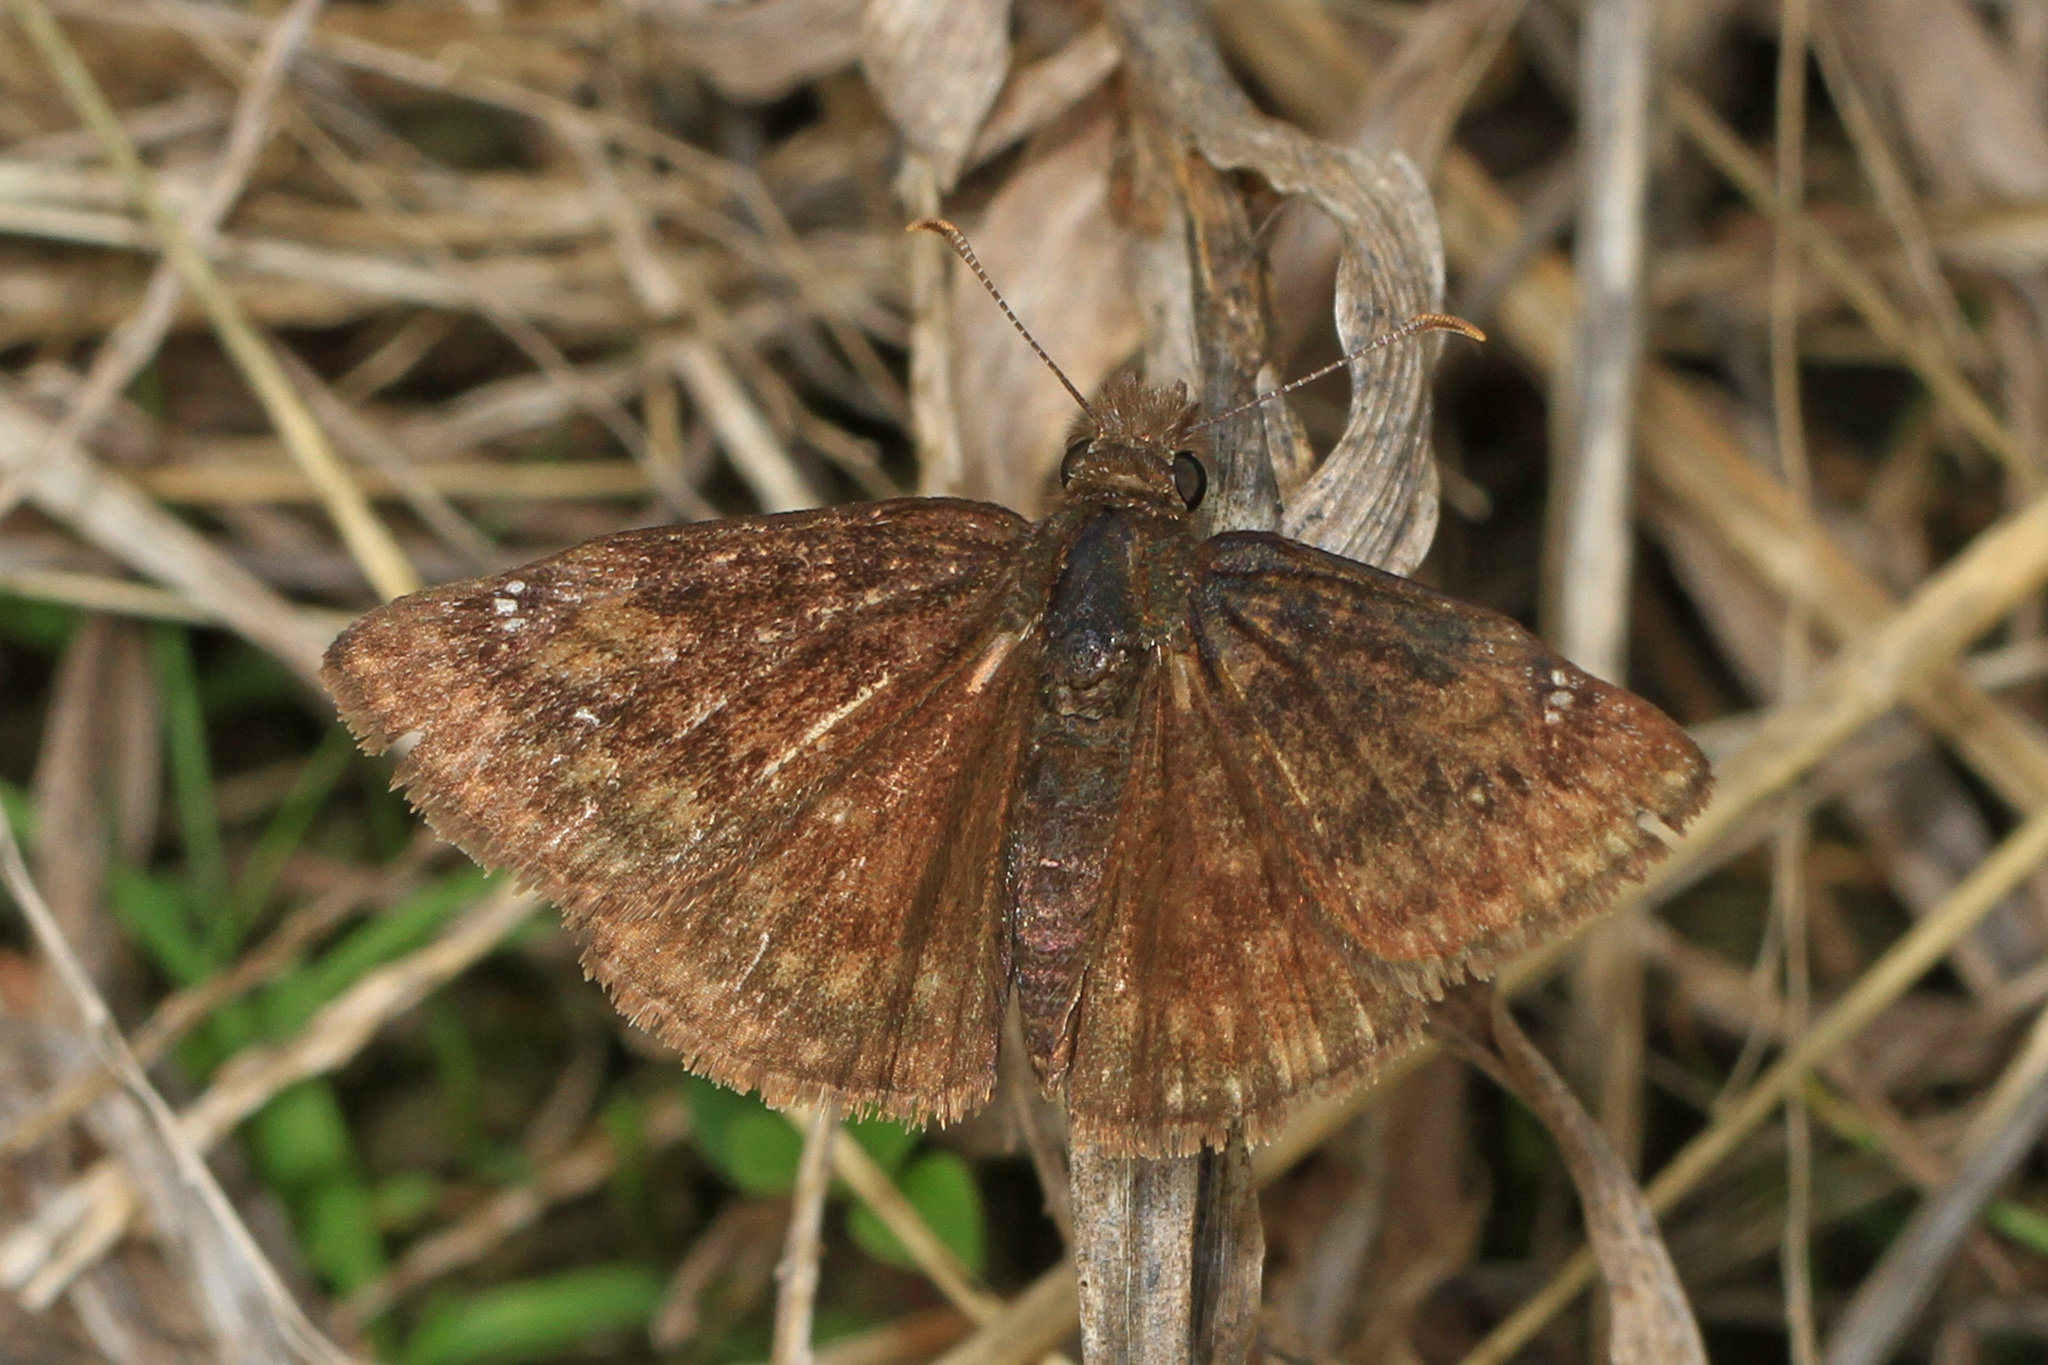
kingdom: Animalia
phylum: Arthropoda
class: Insecta
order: Lepidoptera
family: Hesperiidae
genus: Erynnis
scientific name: Erynnis baptisiae
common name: Wild indigo duskywing
